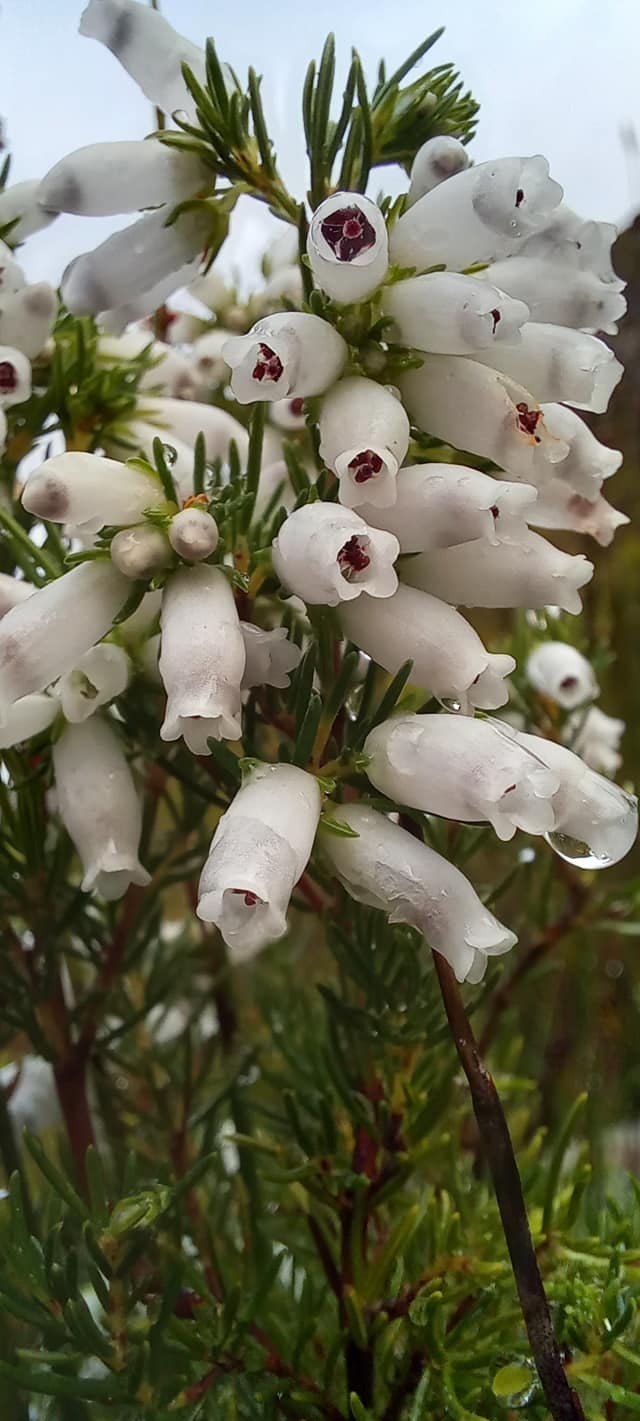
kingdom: Plantae
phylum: Tracheophyta
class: Magnoliopsida
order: Ericales
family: Ericaceae
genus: Erica
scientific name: Erica sitiens
